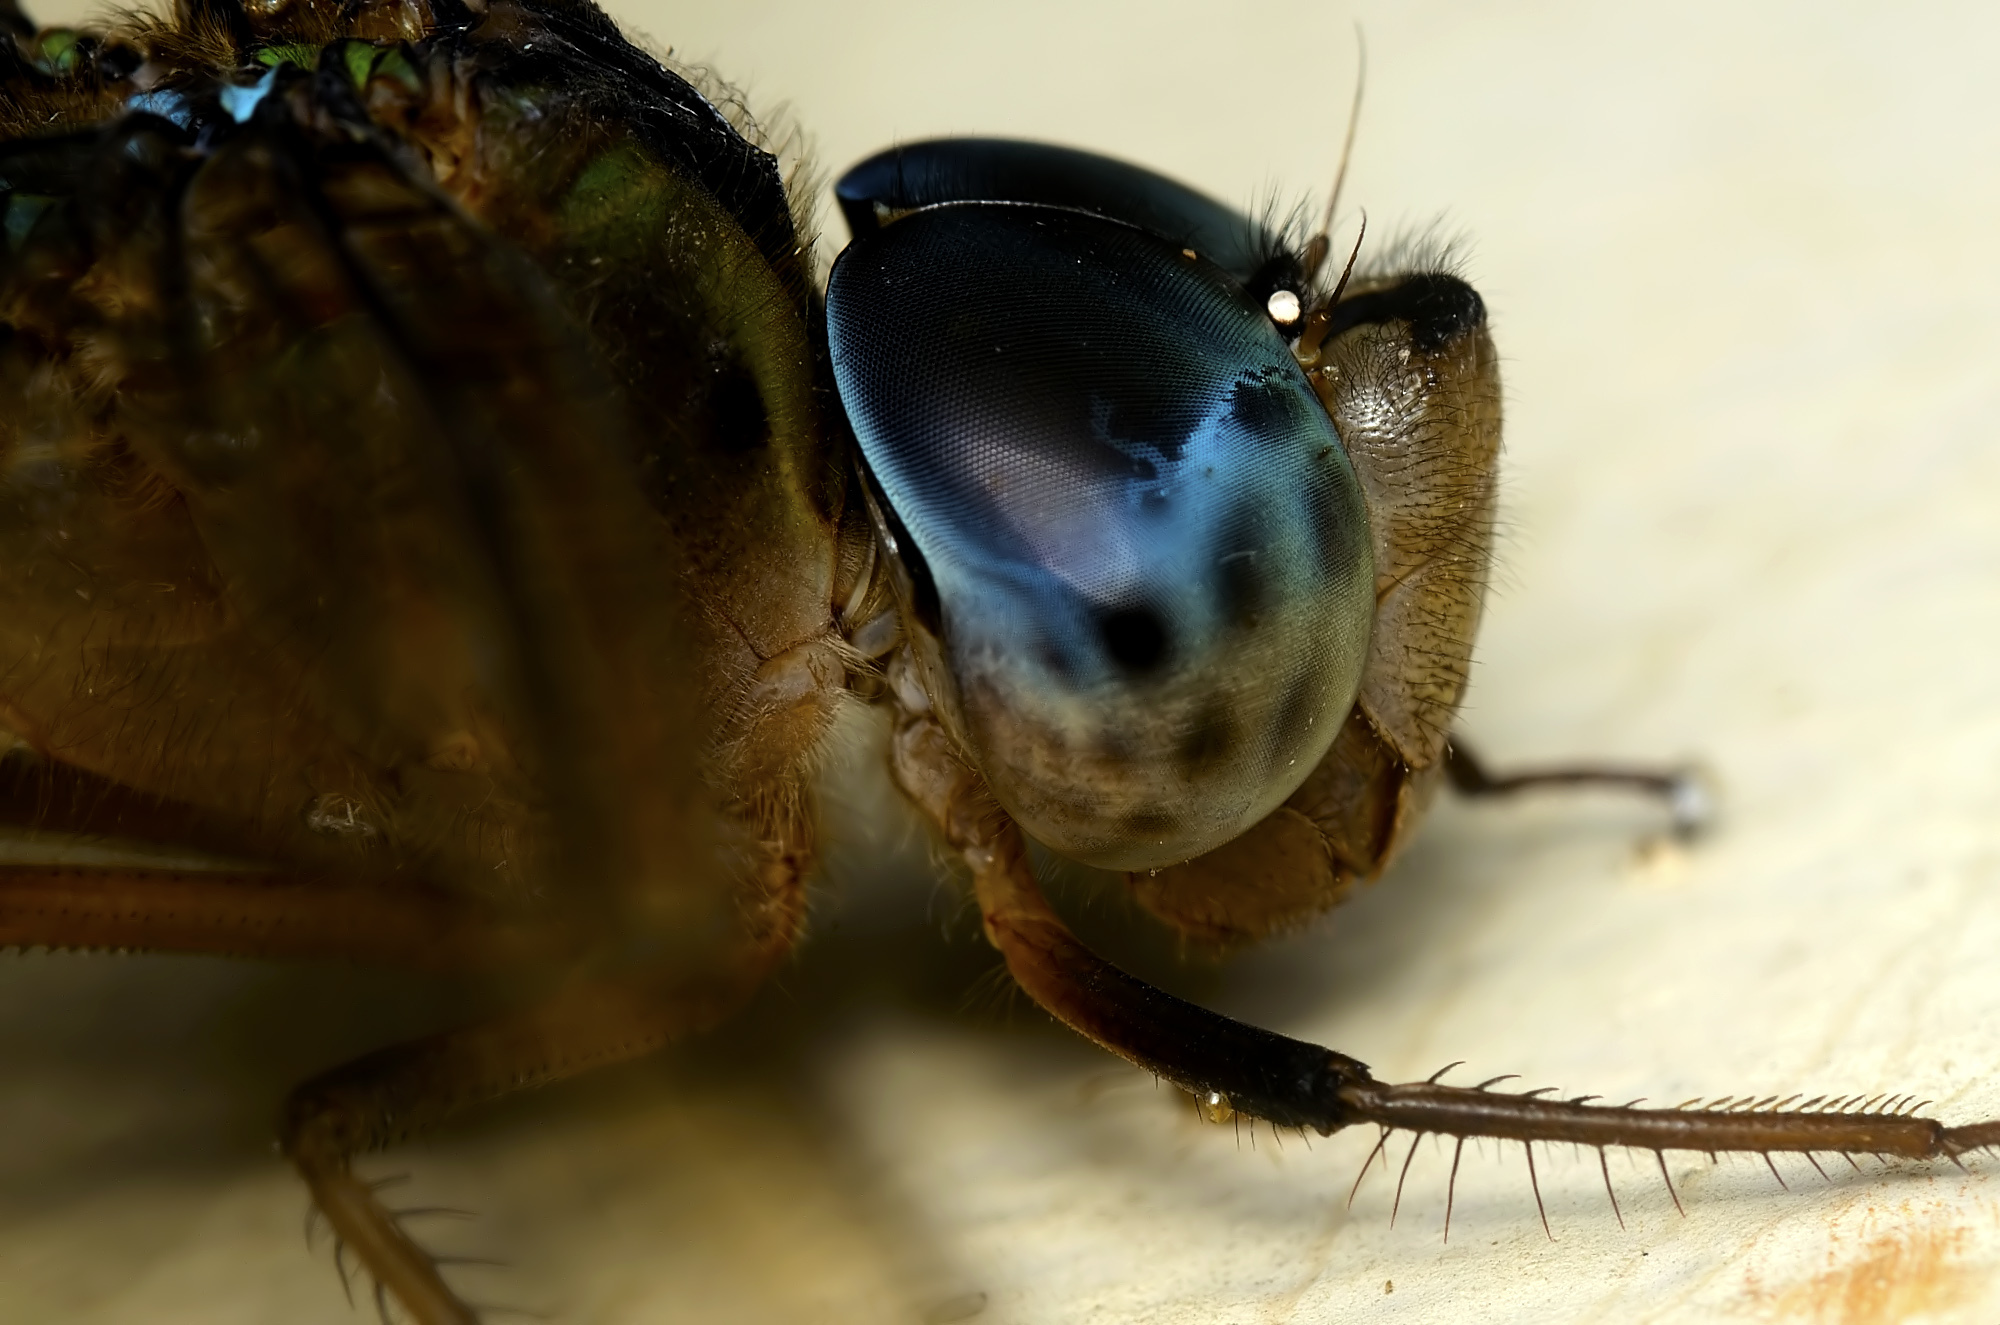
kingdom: Animalia
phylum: Arthropoda
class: Insecta
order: Odonata
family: Aeshnidae
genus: Gynacantha
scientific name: Gynacantha dravida
